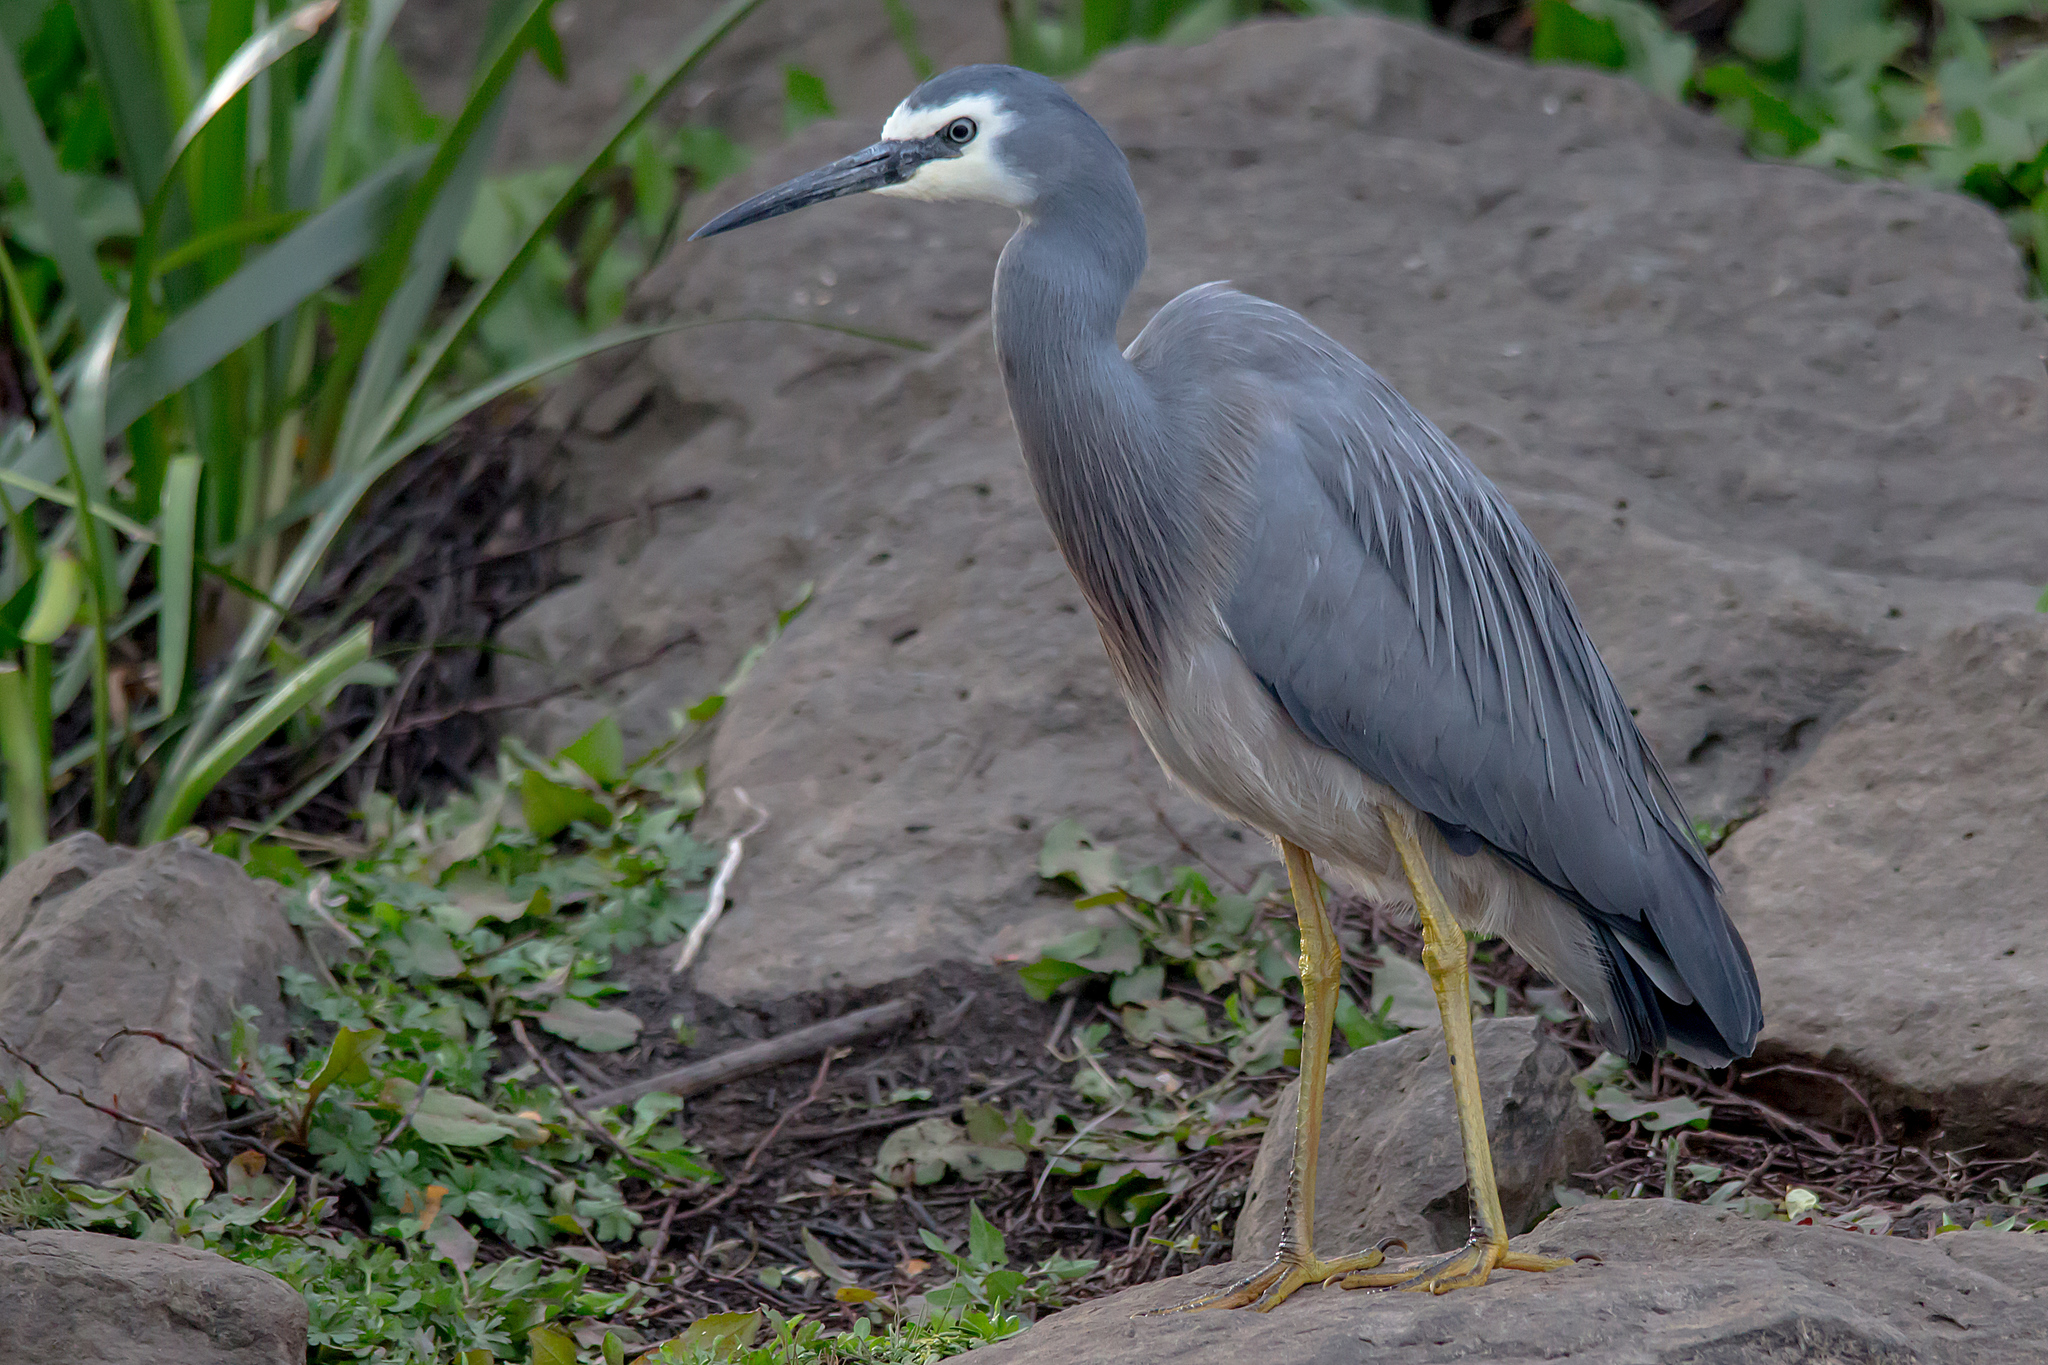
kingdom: Animalia
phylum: Chordata
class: Aves
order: Pelecaniformes
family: Ardeidae
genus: Egretta
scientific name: Egretta novaehollandiae
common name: White-faced heron
